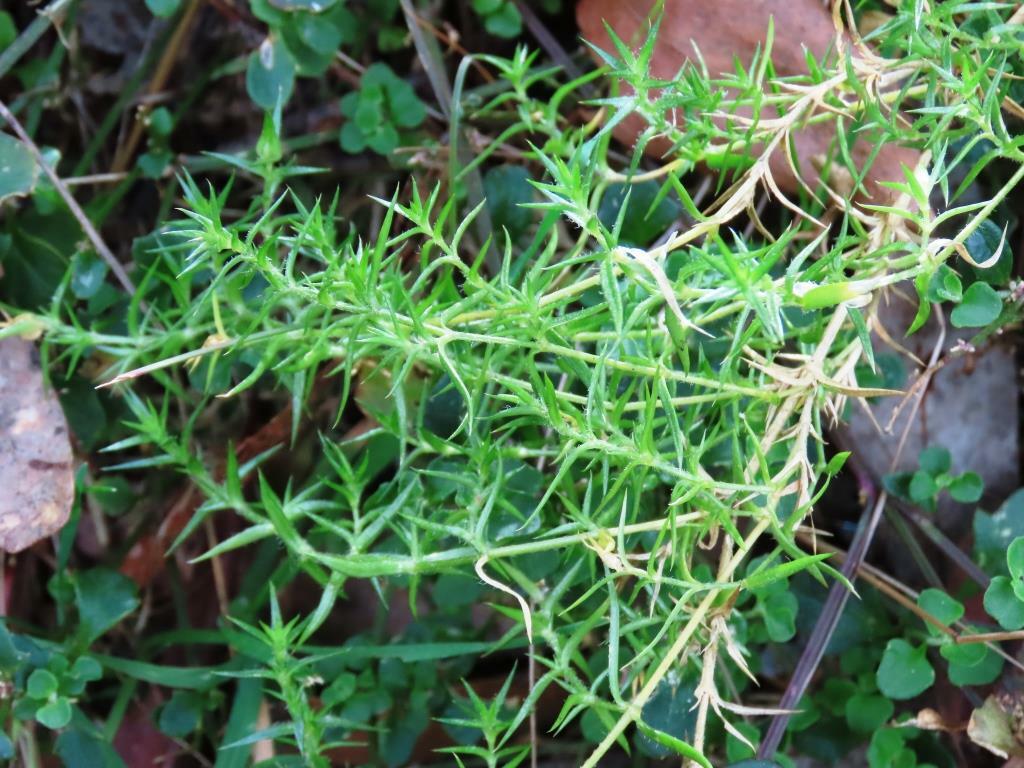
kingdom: Plantae
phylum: Tracheophyta
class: Magnoliopsida
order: Caryophyllales
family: Caryophyllaceae
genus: Stellaria
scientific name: Stellaria pungens
